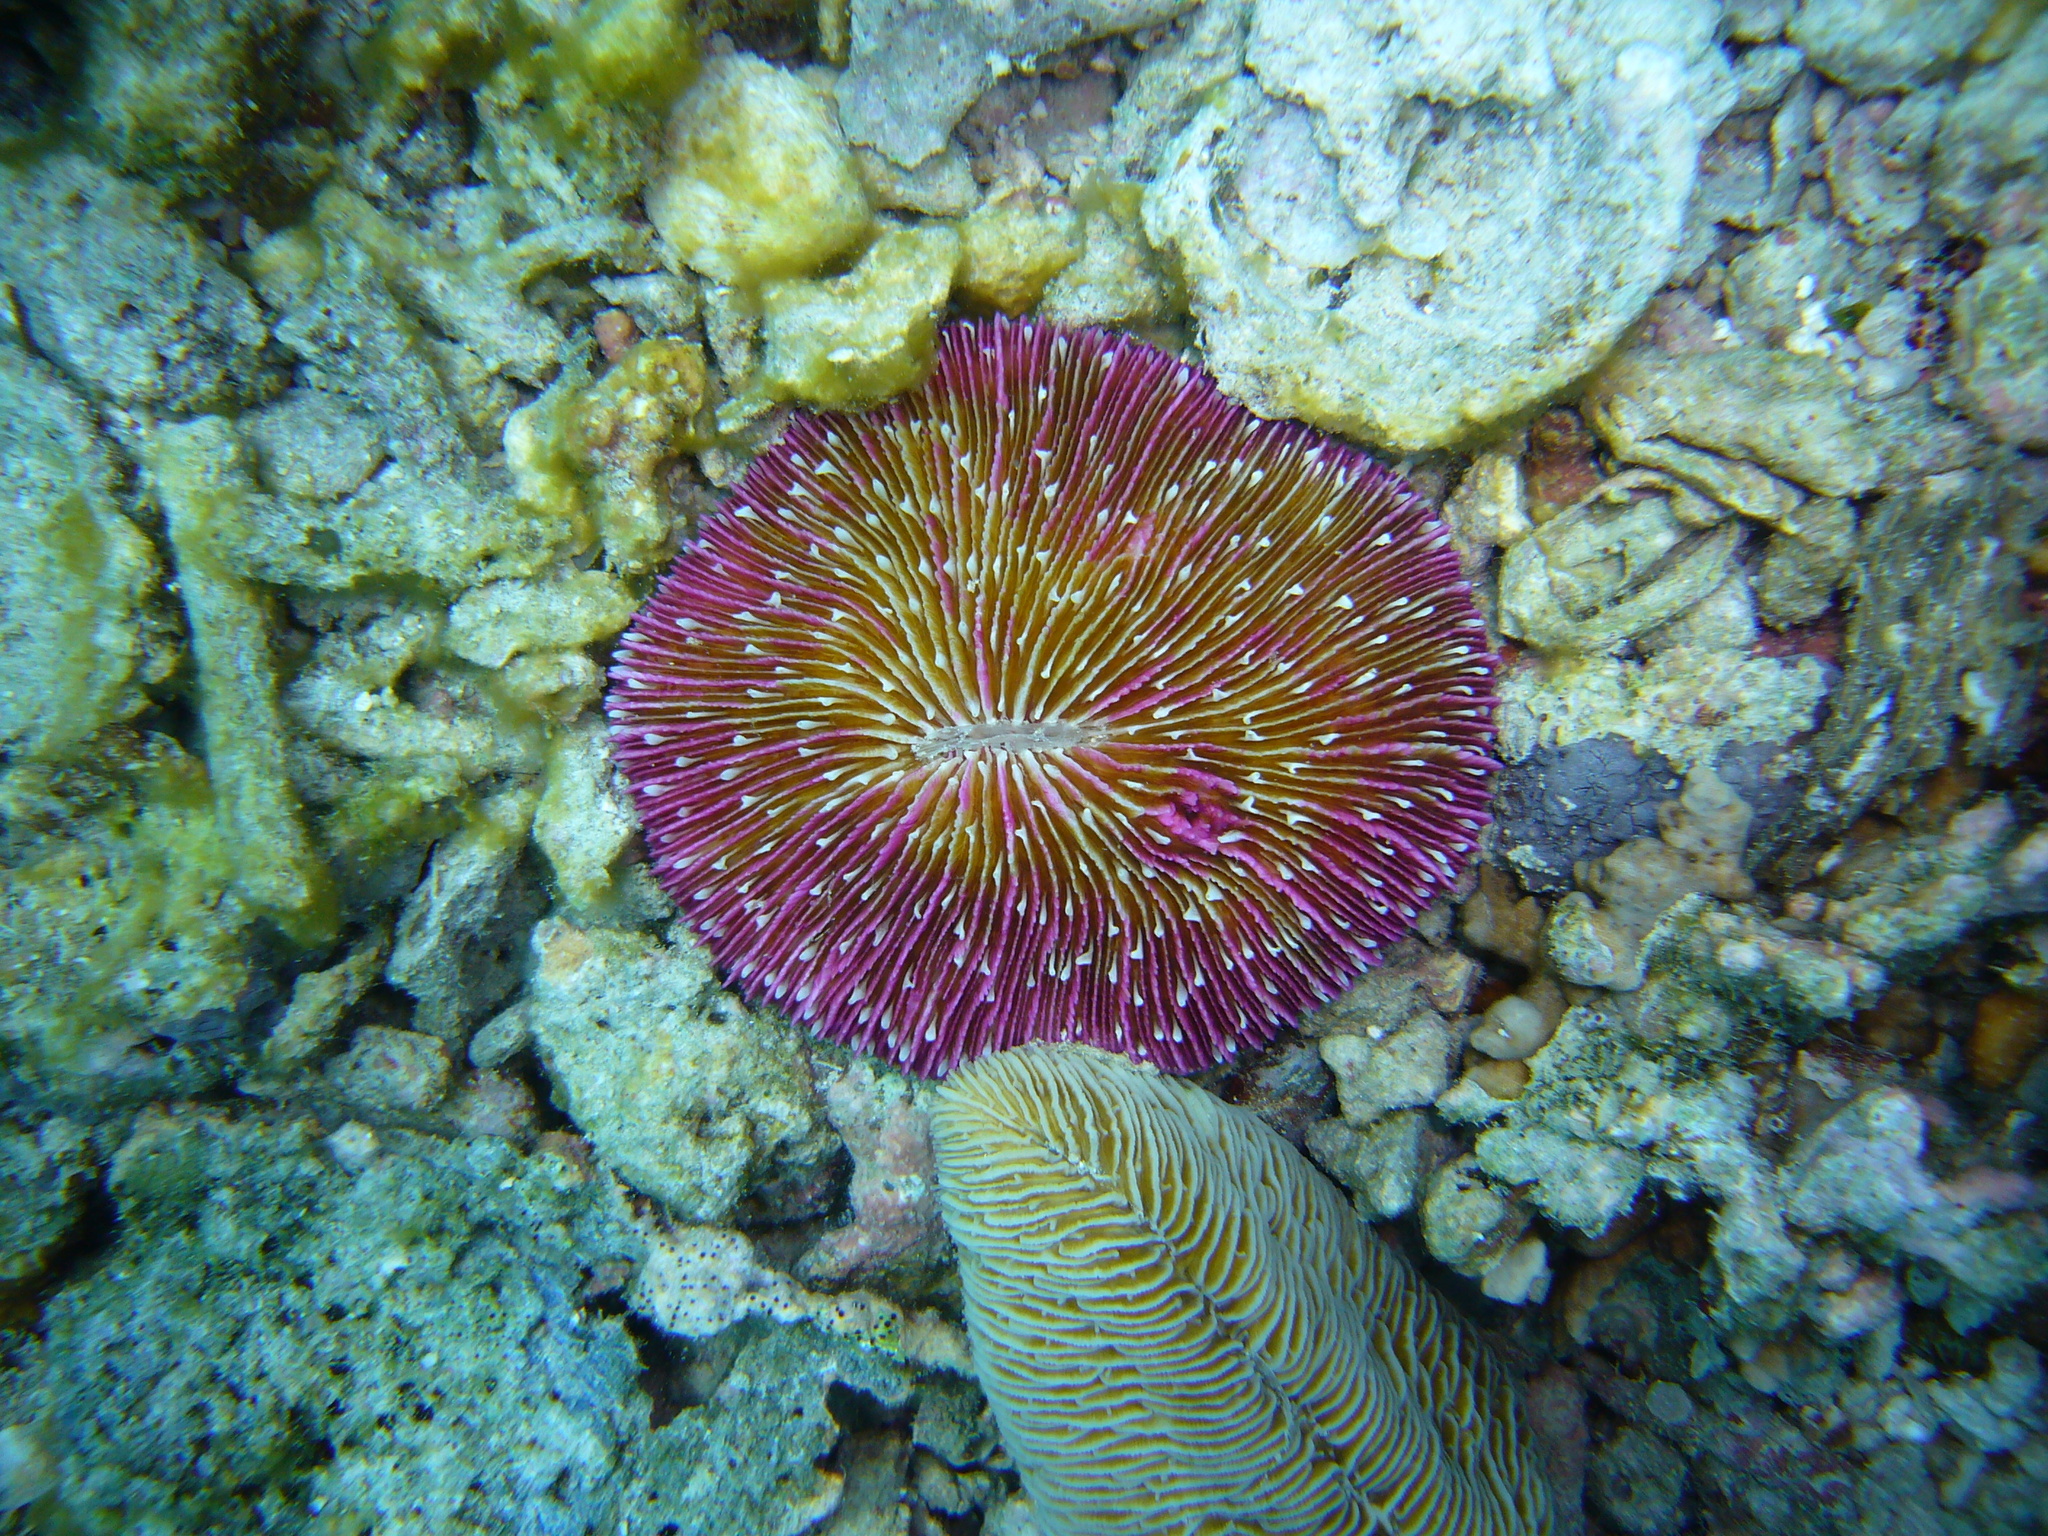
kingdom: Animalia
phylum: Cnidaria
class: Anthozoa
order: Scleractinia
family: Fungiidae
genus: Fungia
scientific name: Fungia fungites
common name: Mushroom coral
